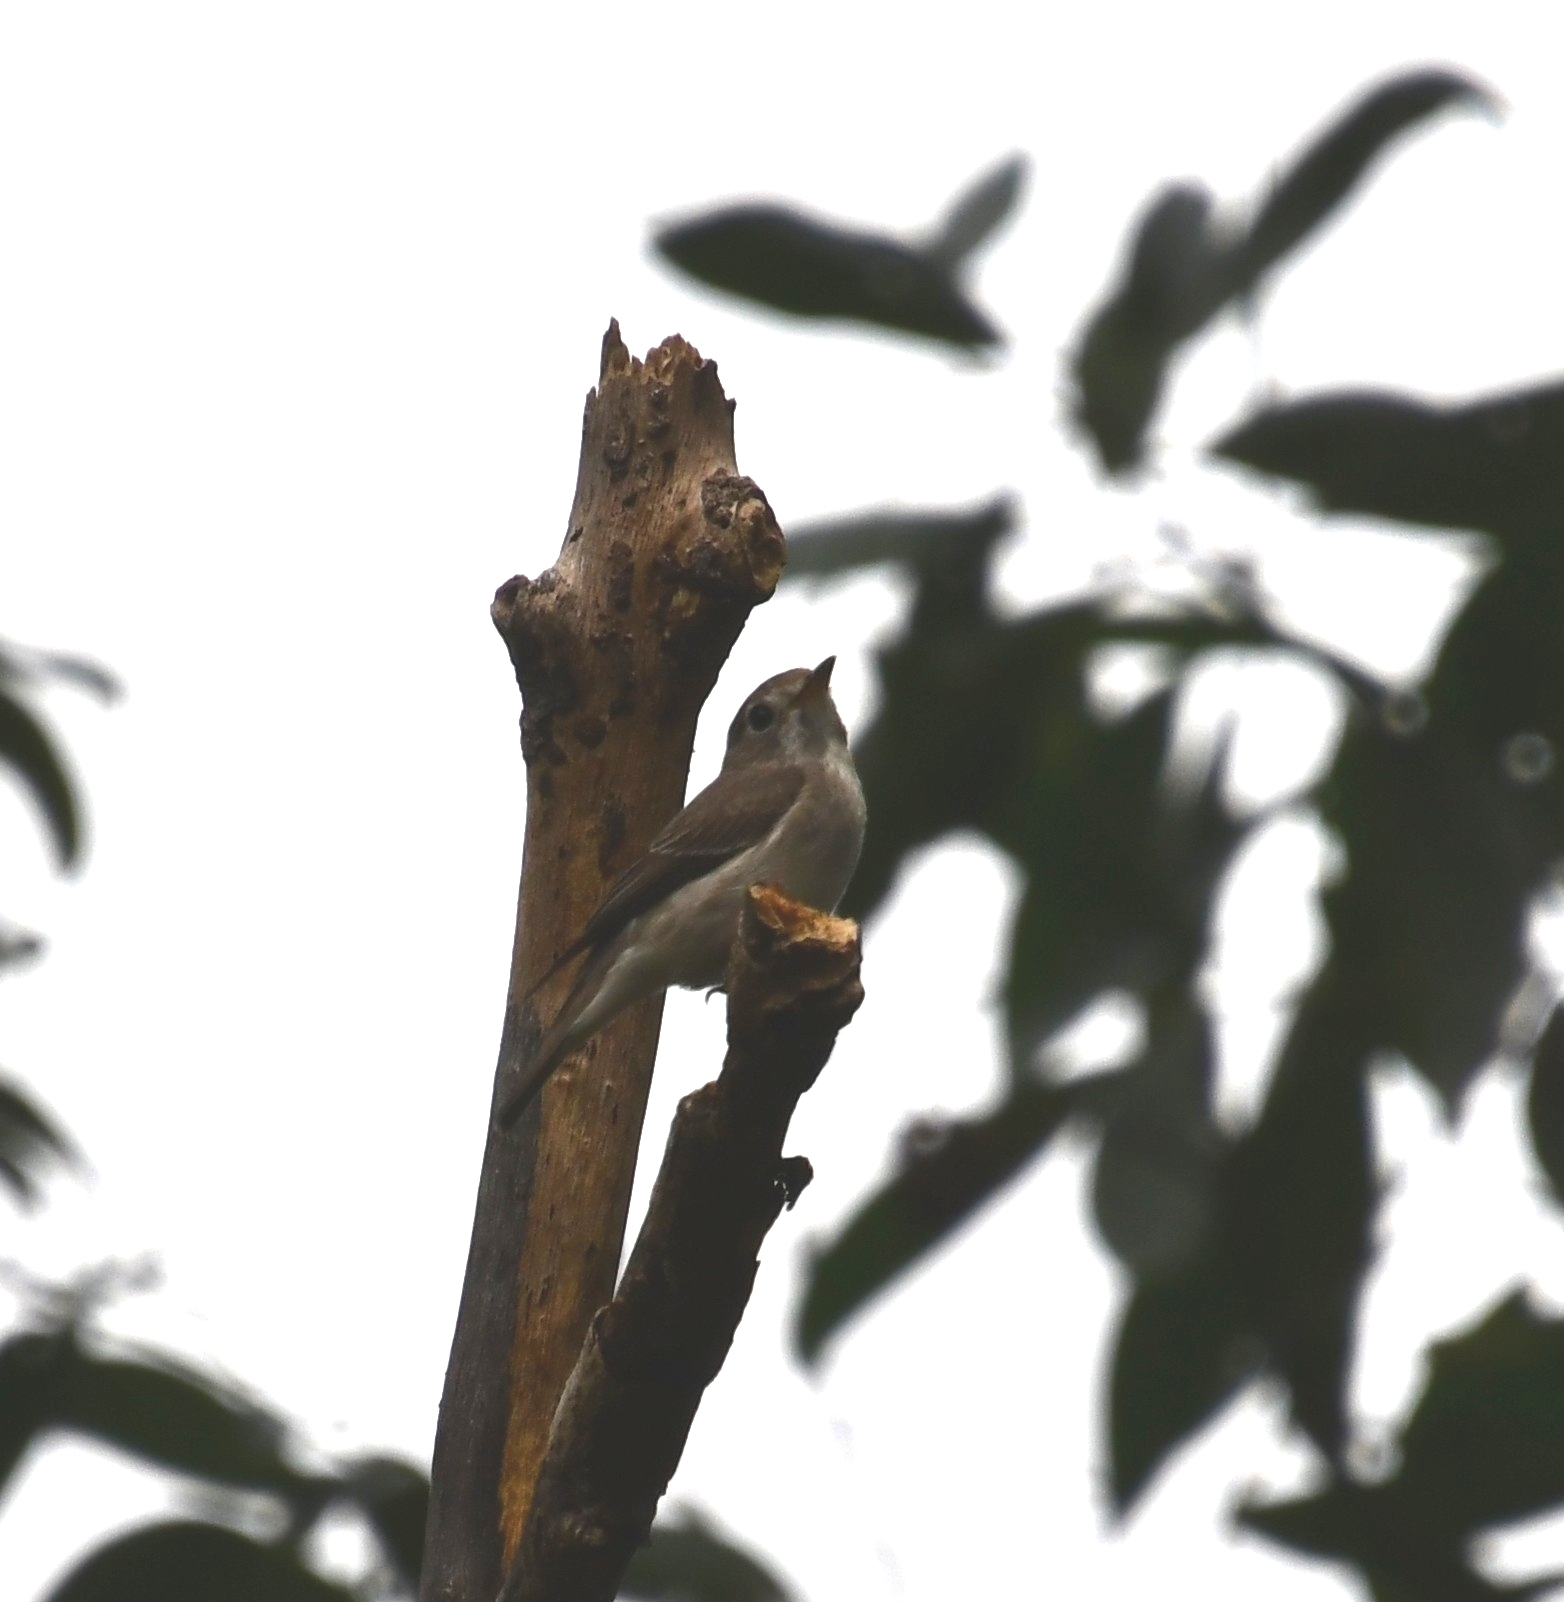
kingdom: Animalia
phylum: Chordata
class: Aves
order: Passeriformes
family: Muscicapidae
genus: Muscicapa
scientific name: Muscicapa latirostris
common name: Asian brown flycatcher
